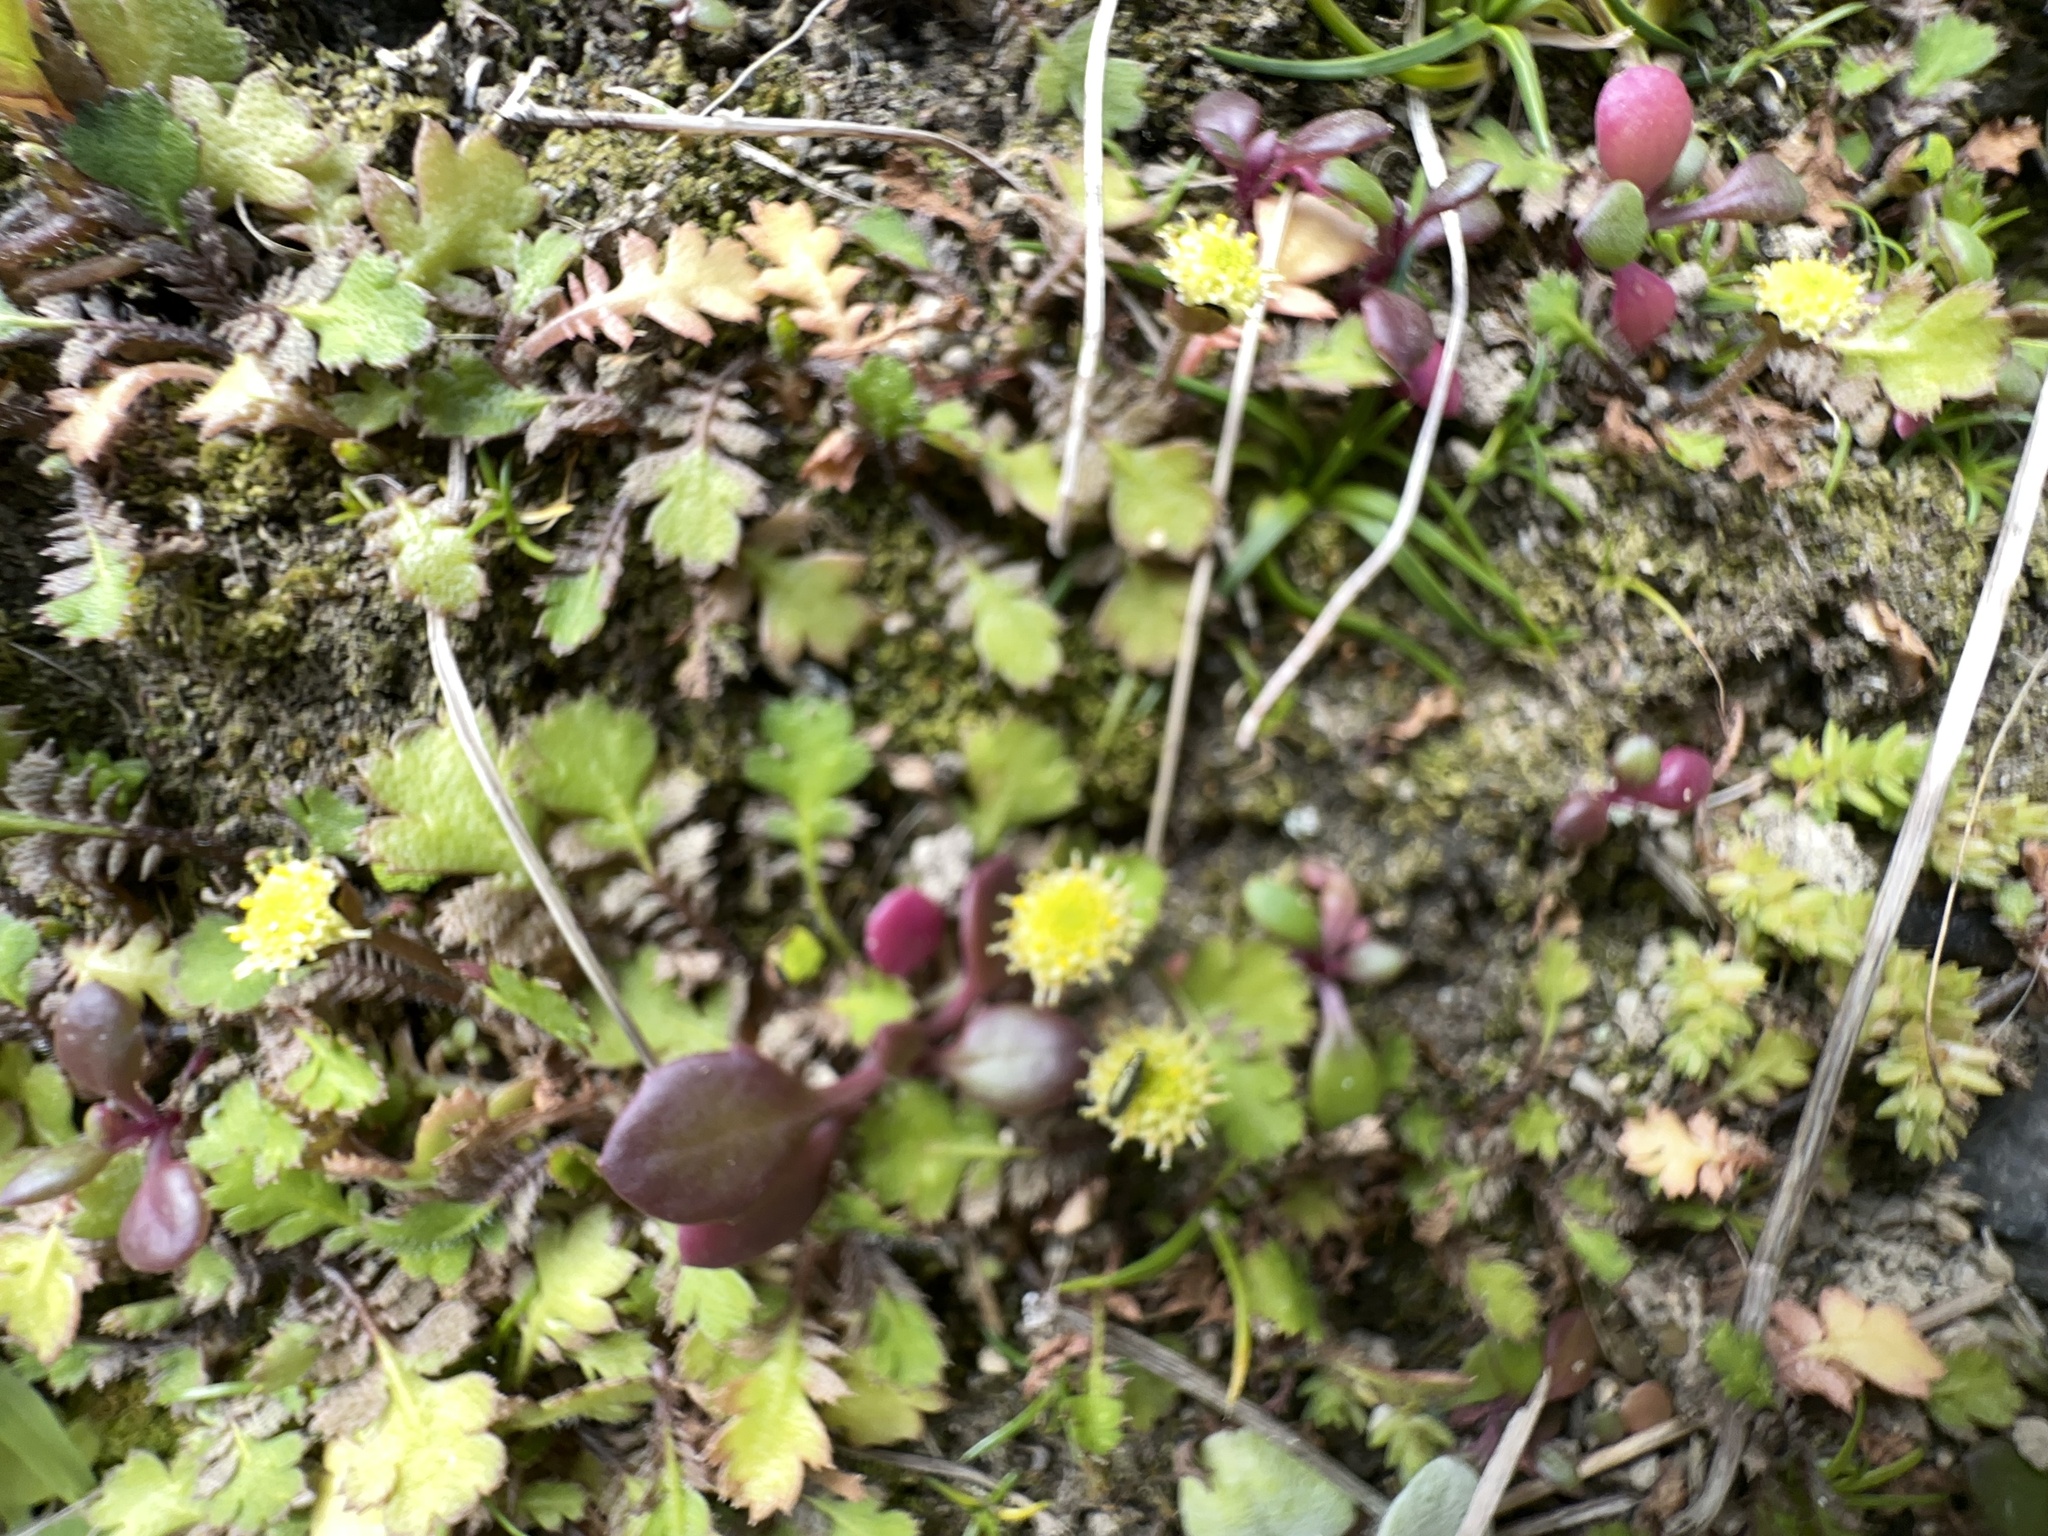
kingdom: Plantae
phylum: Tracheophyta
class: Magnoliopsida
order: Asterales
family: Asteraceae
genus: Leptinella
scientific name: Leptinella squalida
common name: New zealand brass-buttons
